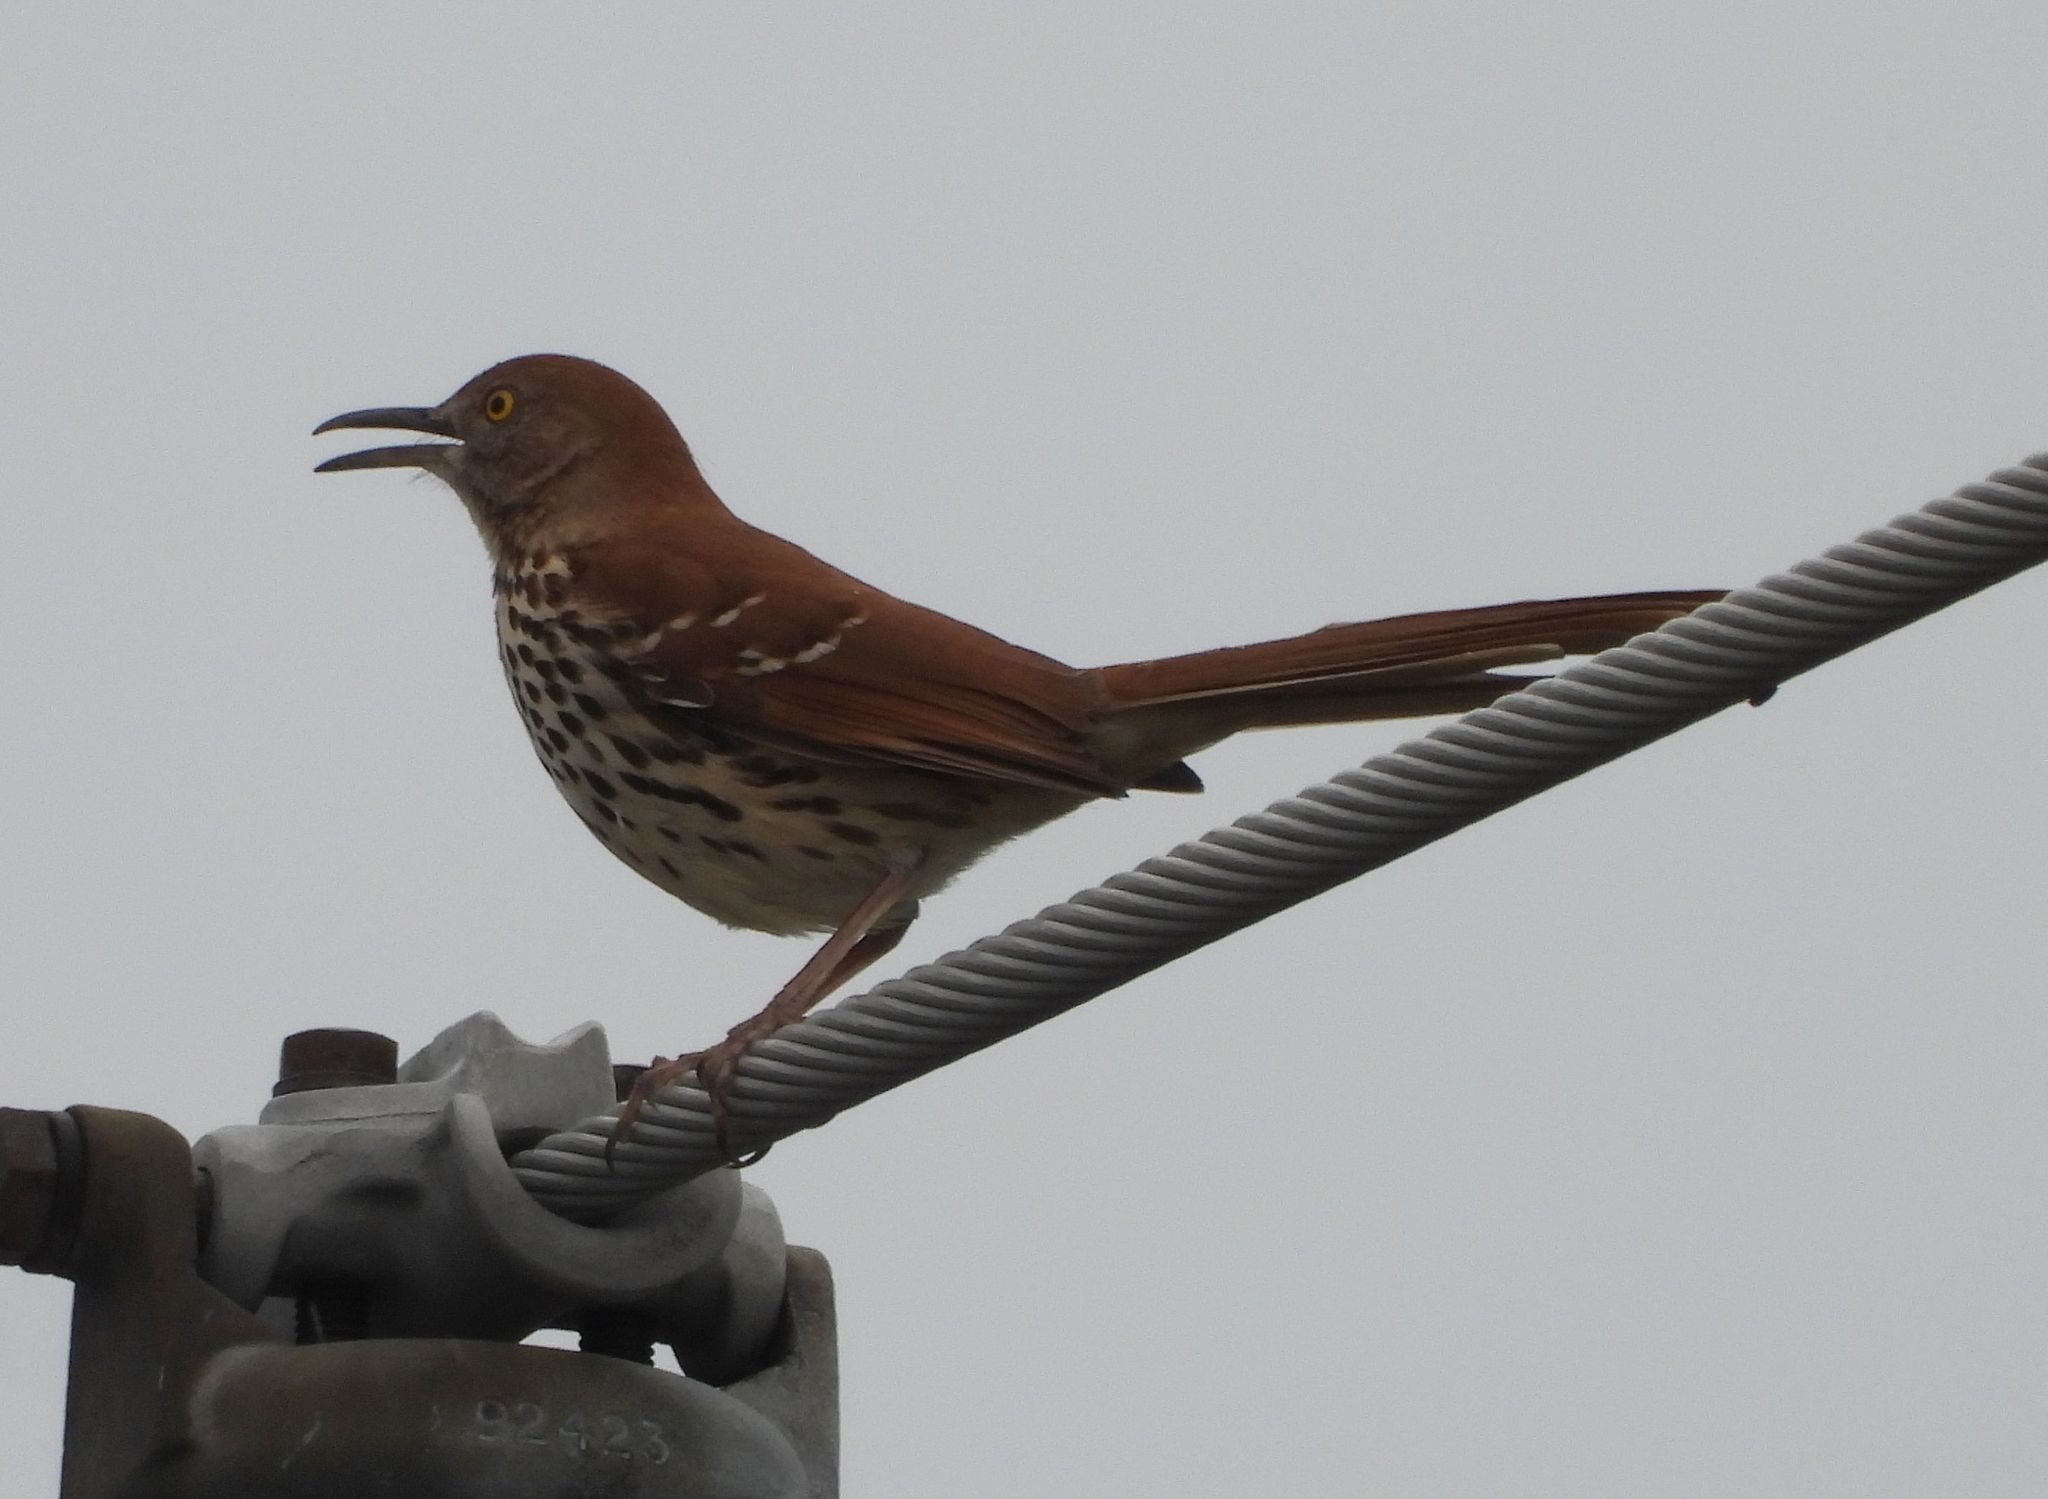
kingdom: Animalia
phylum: Chordata
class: Aves
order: Passeriformes
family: Mimidae
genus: Toxostoma
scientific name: Toxostoma rufum
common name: Brown thrasher
